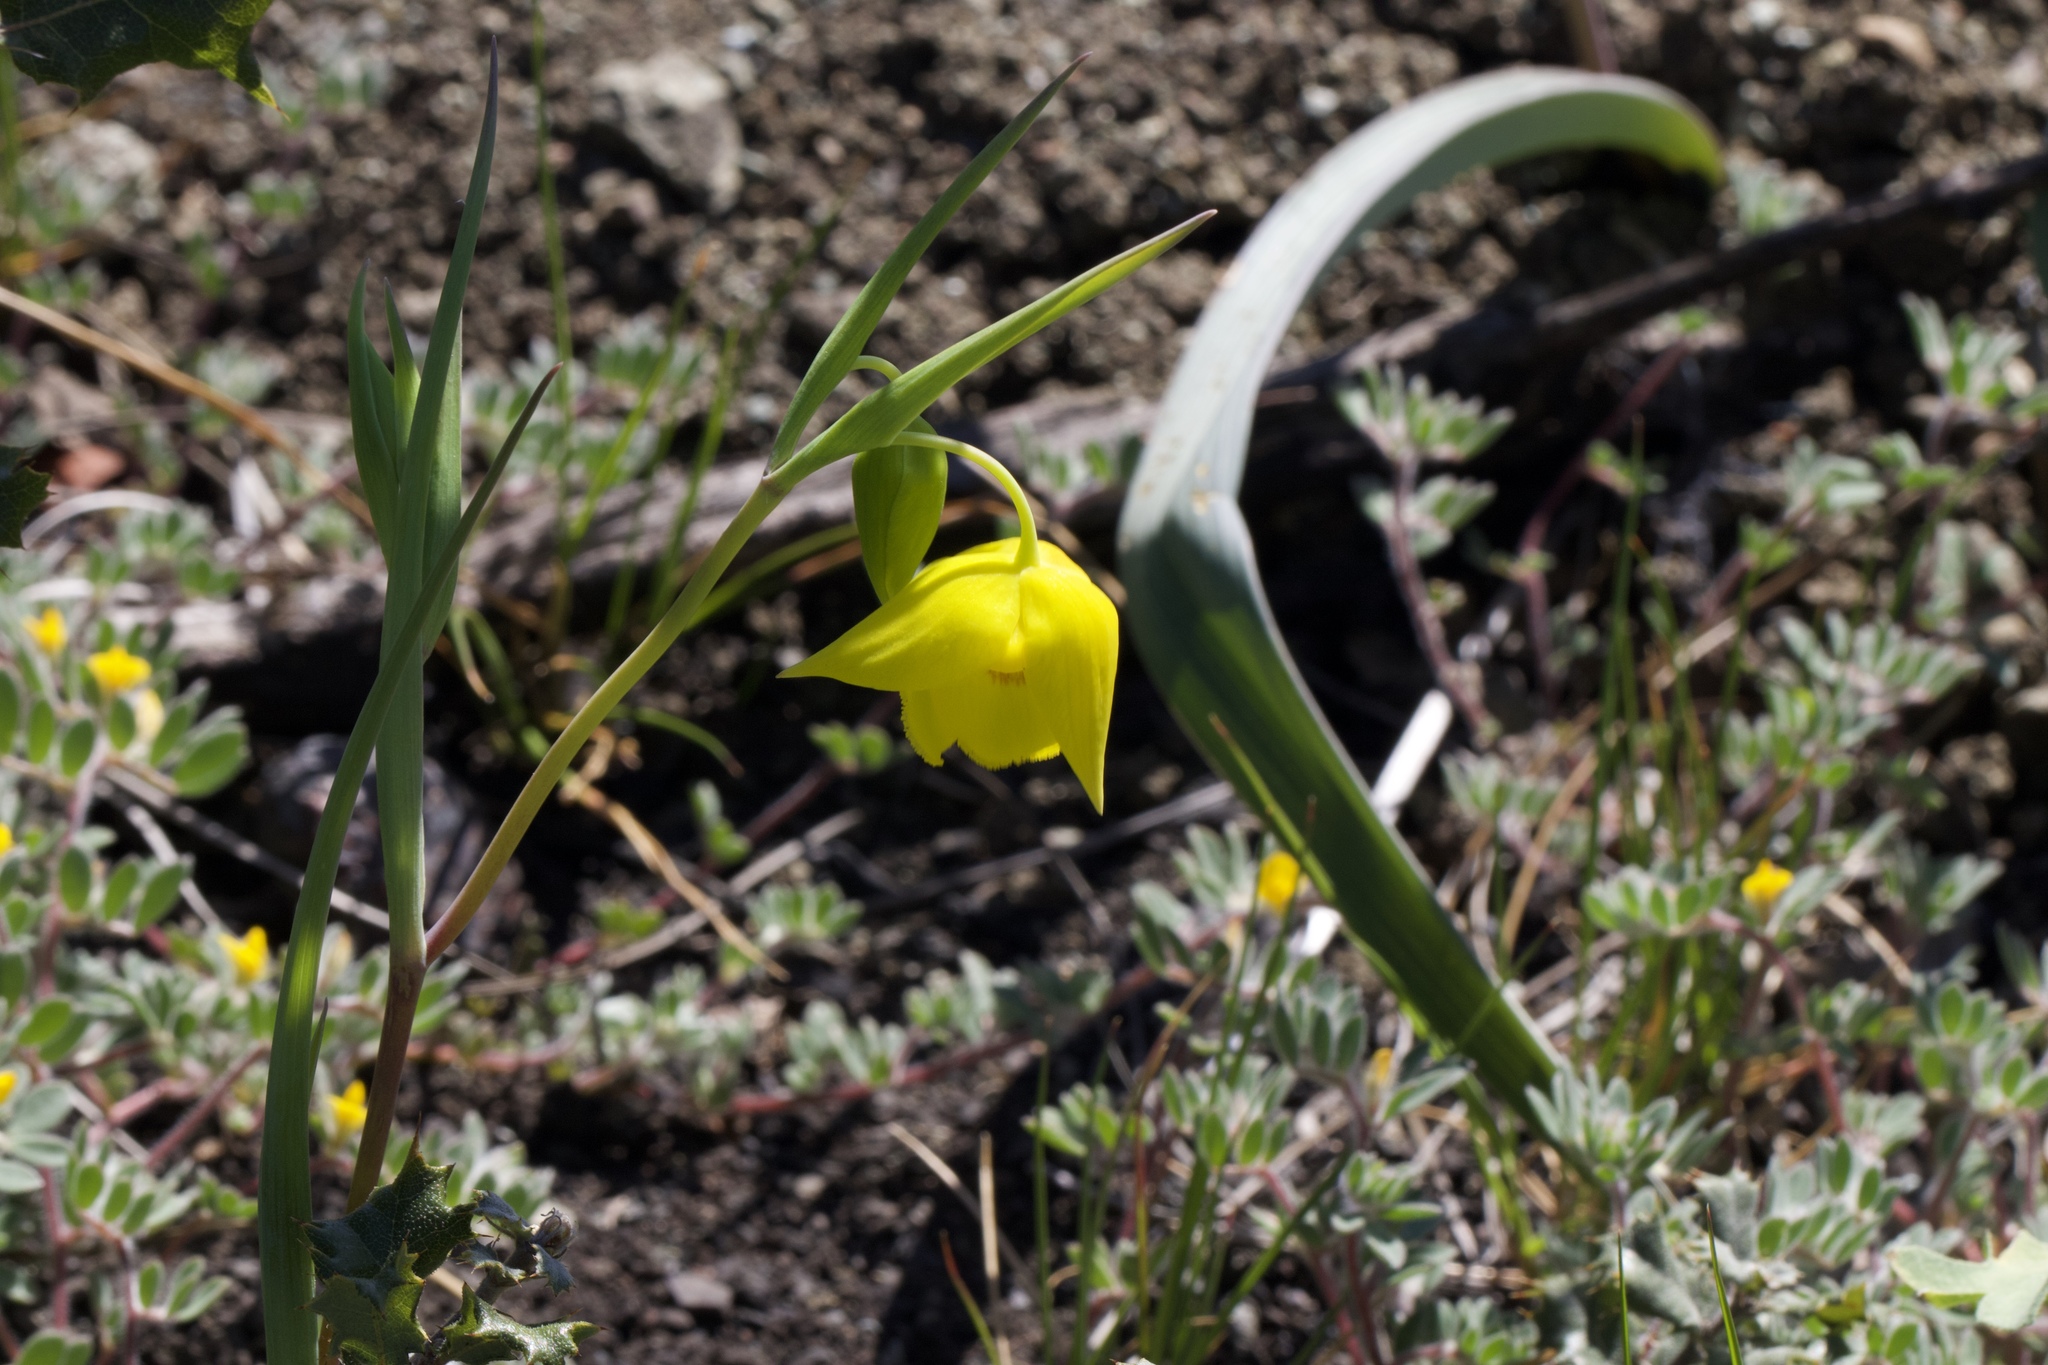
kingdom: Plantae
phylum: Tracheophyta
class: Liliopsida
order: Liliales
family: Liliaceae
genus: Calochortus
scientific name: Calochortus amabilis
